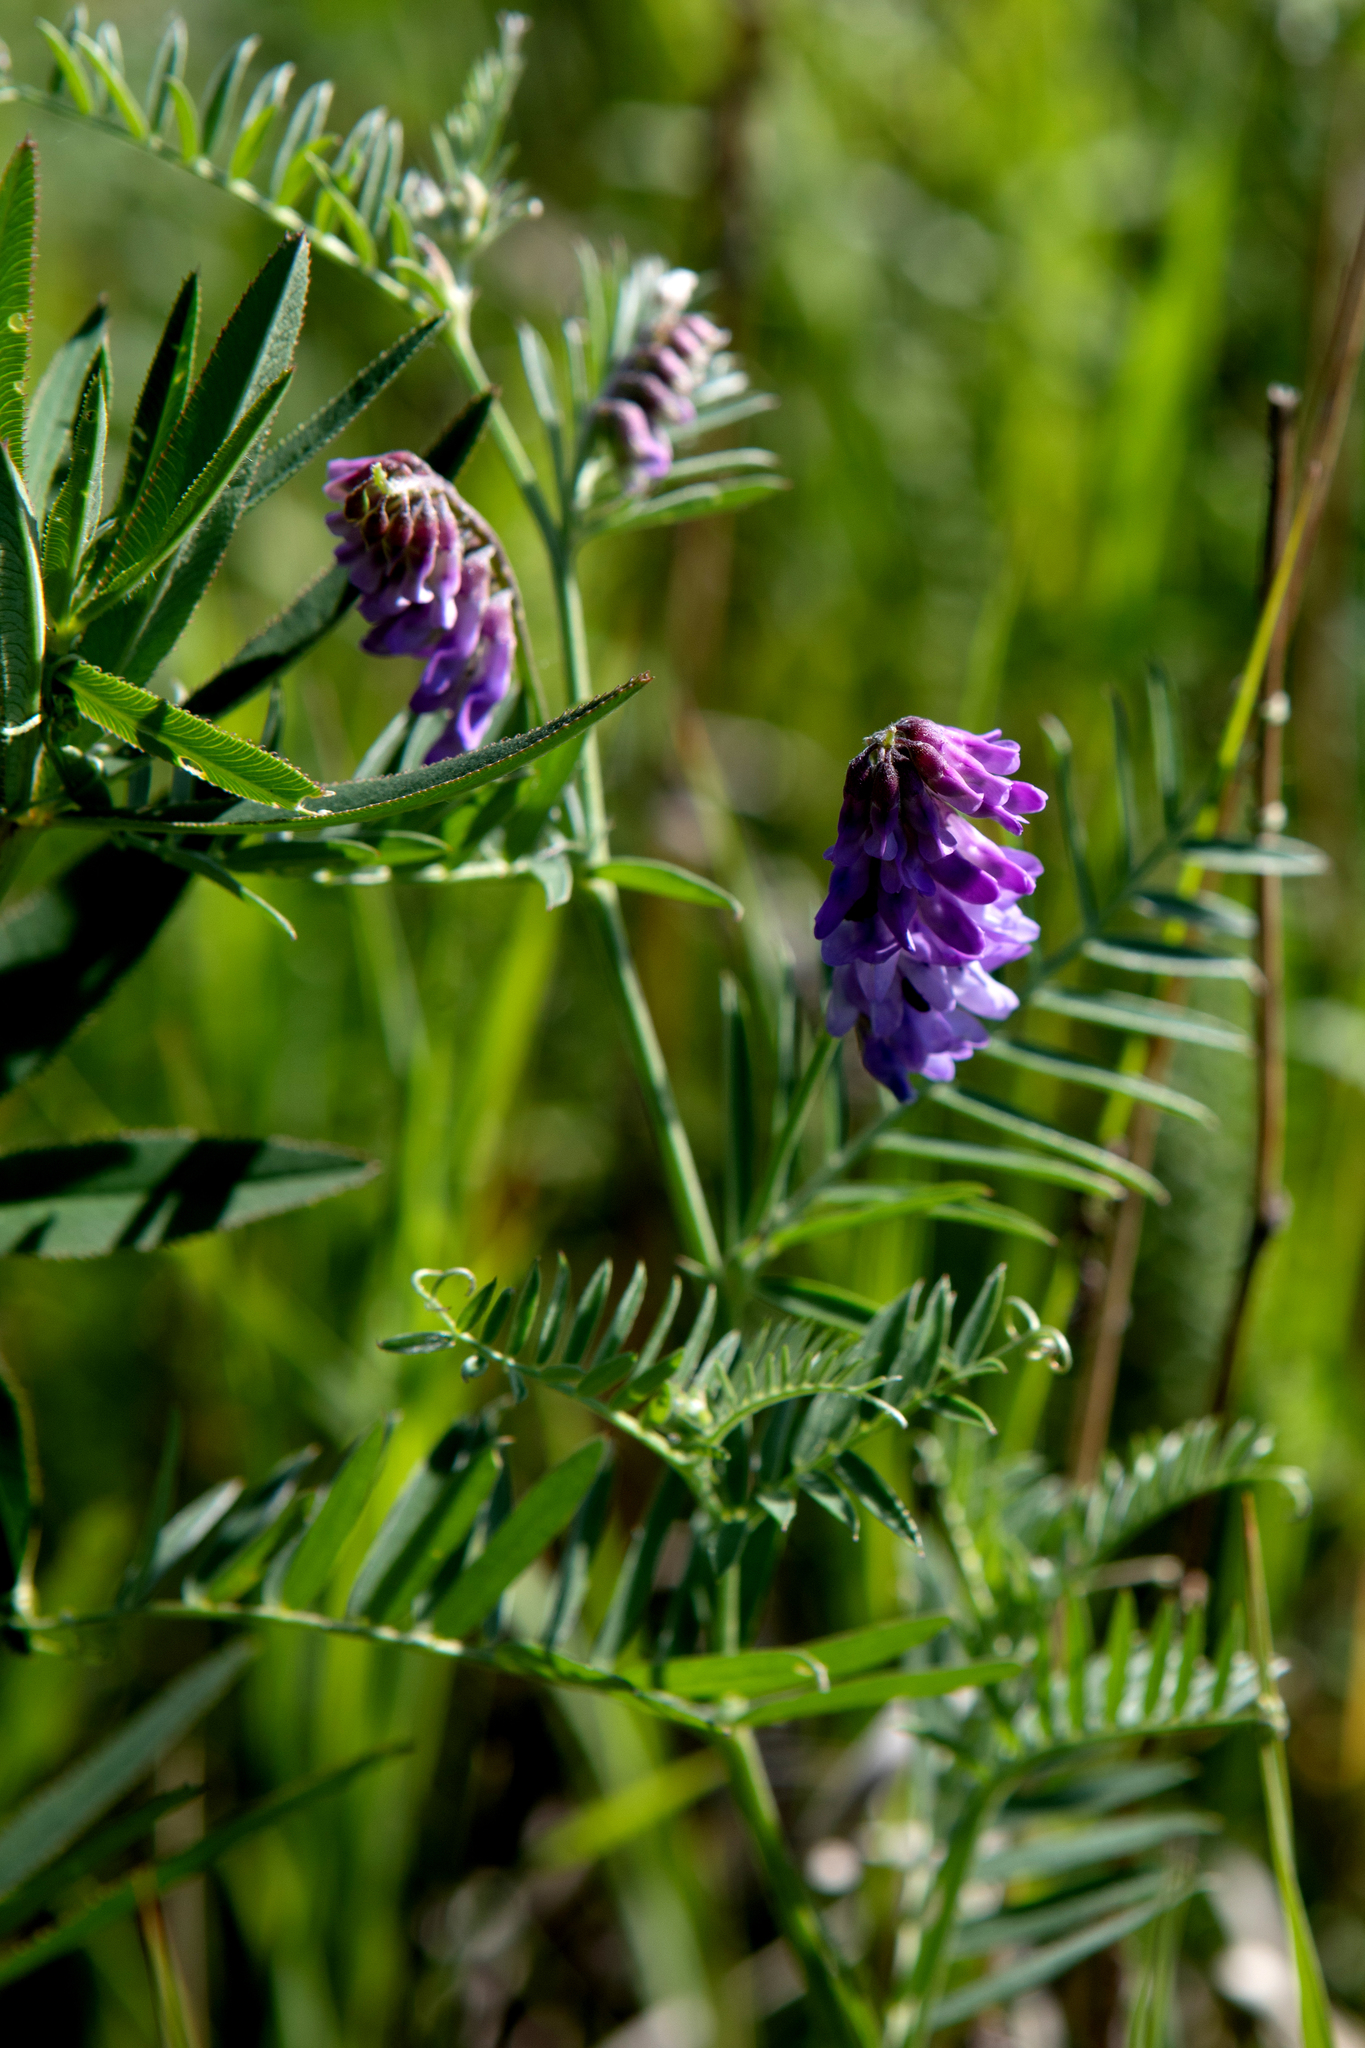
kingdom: Plantae
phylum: Tracheophyta
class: Magnoliopsida
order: Fabales
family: Fabaceae
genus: Vicia
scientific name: Vicia cracca
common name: Bird vetch
